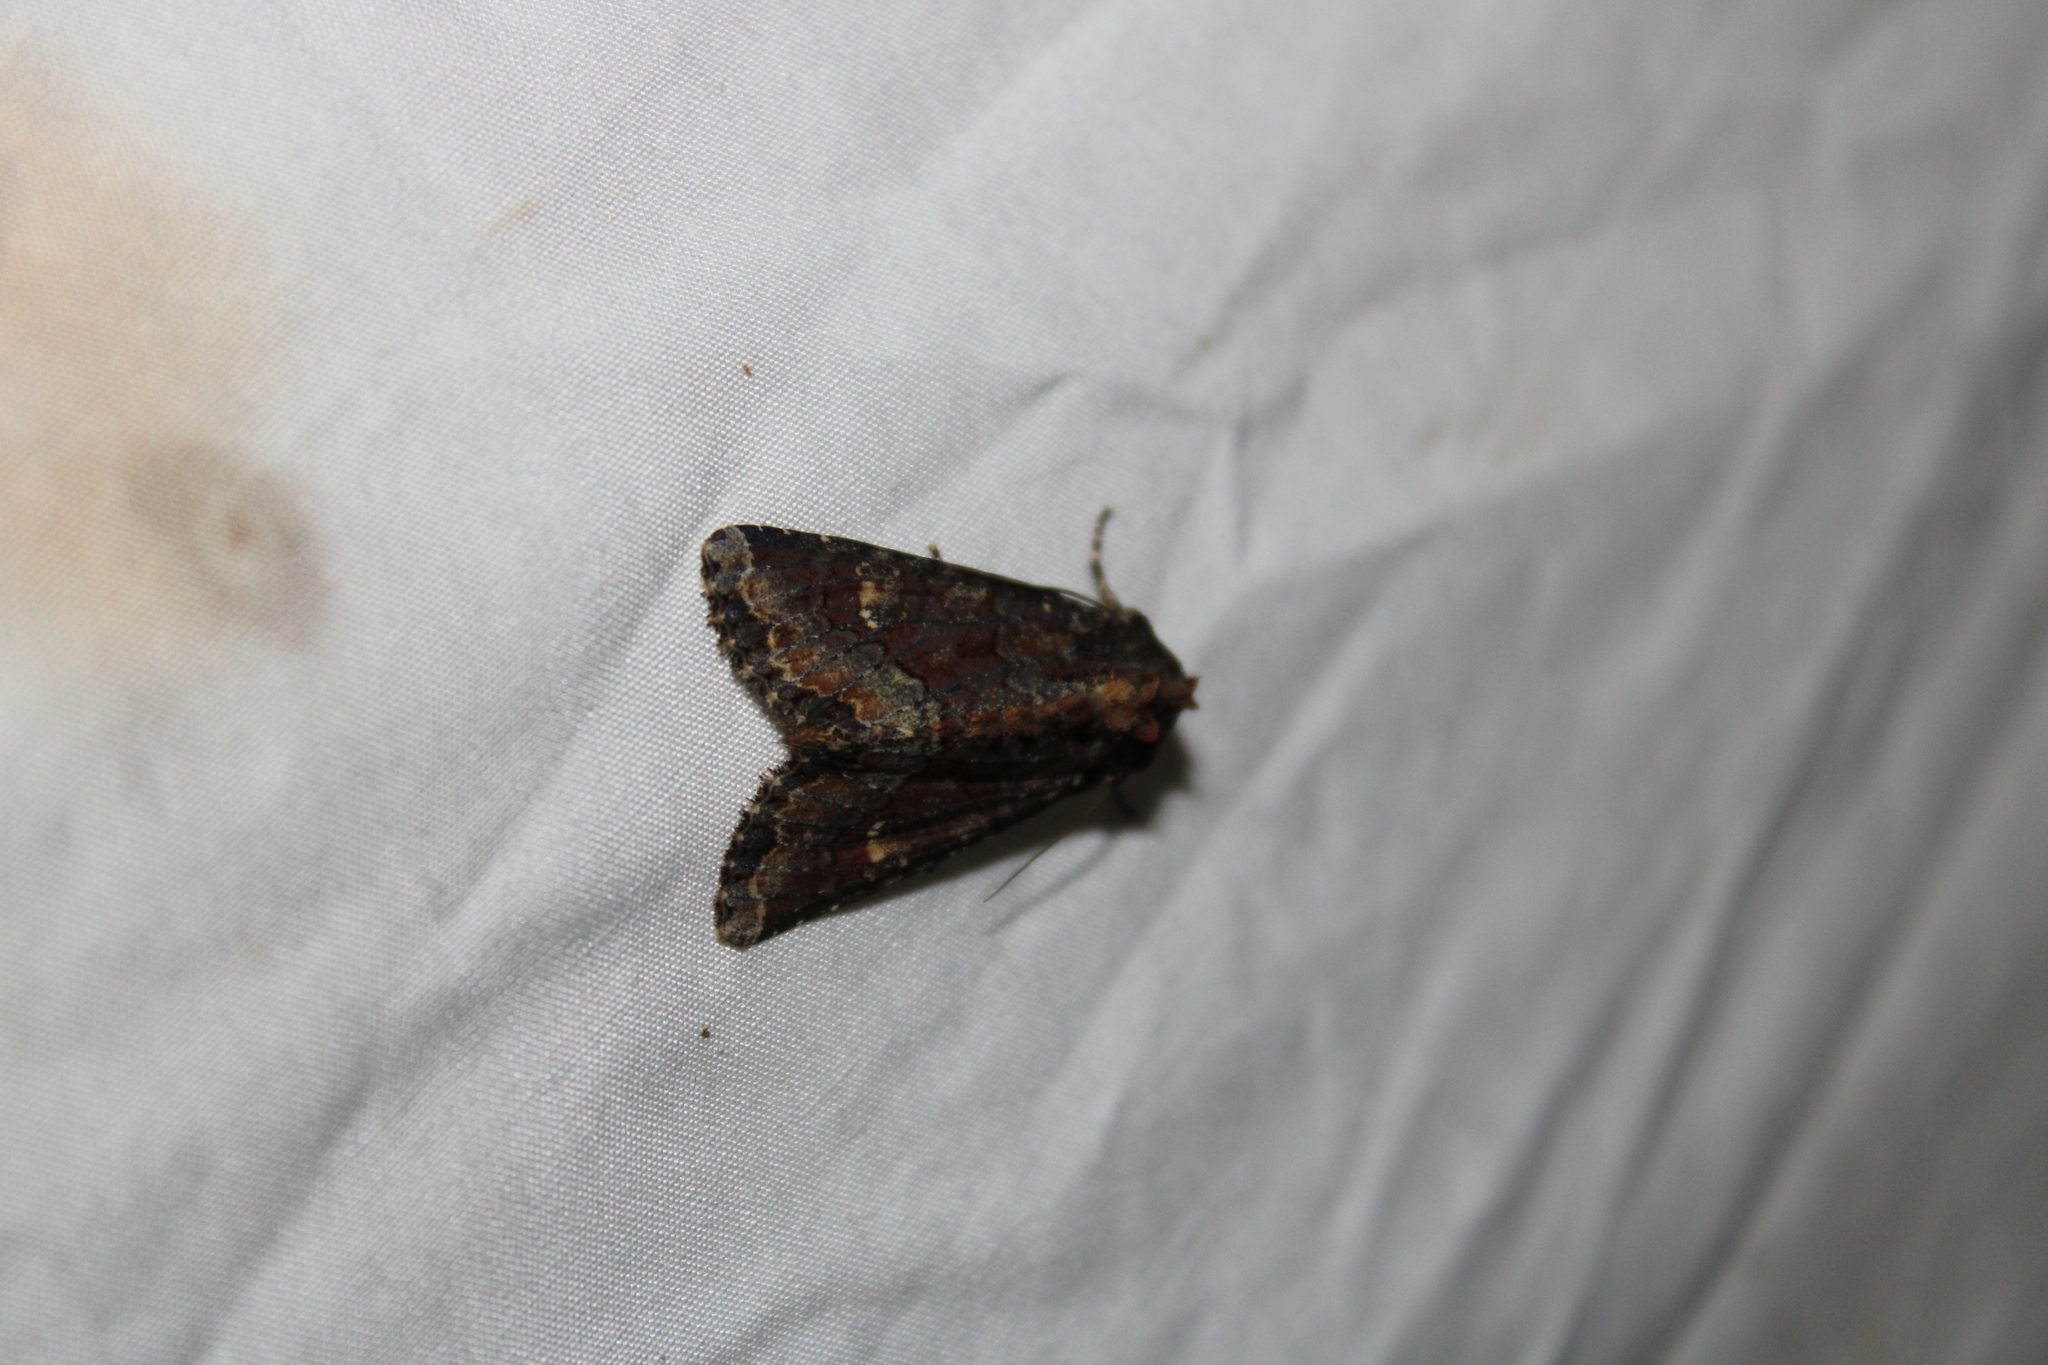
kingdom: Animalia
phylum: Arthropoda
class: Insecta
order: Lepidoptera
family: Noctuidae
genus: Apamea
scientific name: Apamea amputatrix
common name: Yellow-headed cutworm moth
